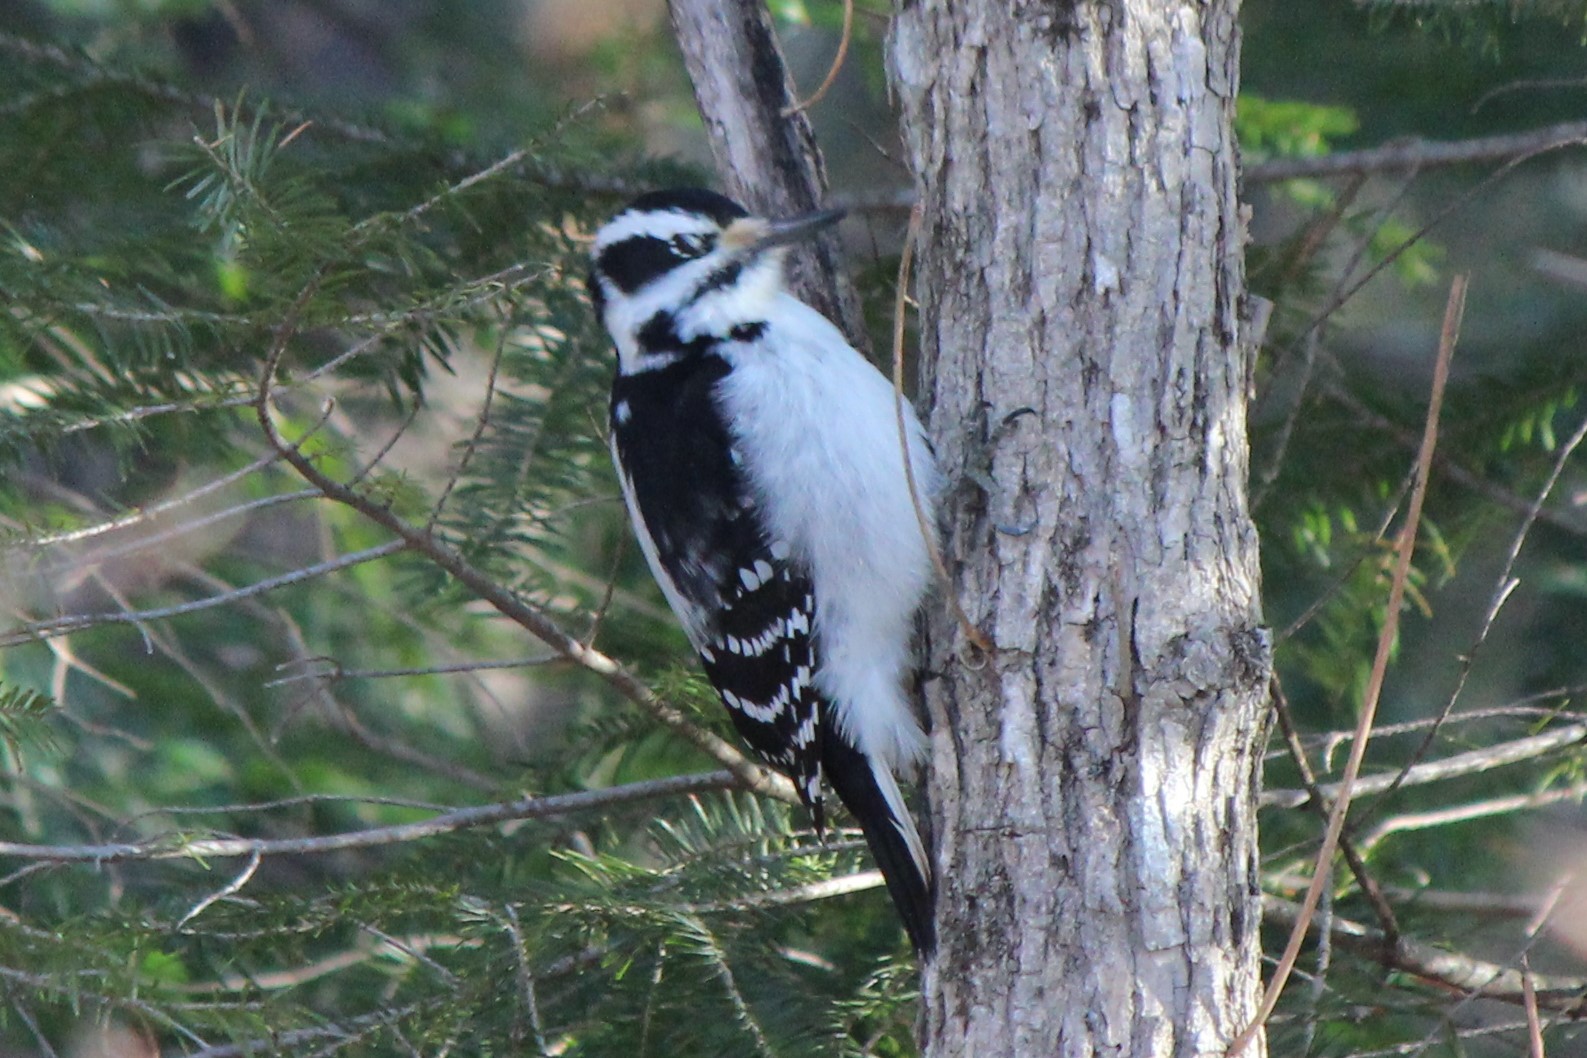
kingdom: Animalia
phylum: Chordata
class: Aves
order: Piciformes
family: Picidae
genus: Leuconotopicus
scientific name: Leuconotopicus villosus
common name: Hairy woodpecker
